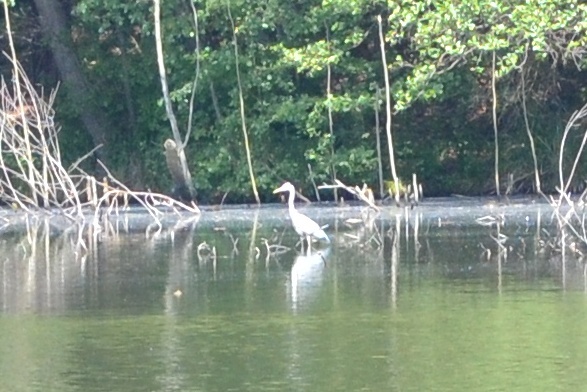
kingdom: Animalia
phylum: Chordata
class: Aves
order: Pelecaniformes
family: Ardeidae
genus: Ardea
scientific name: Ardea alba
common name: Great egret
